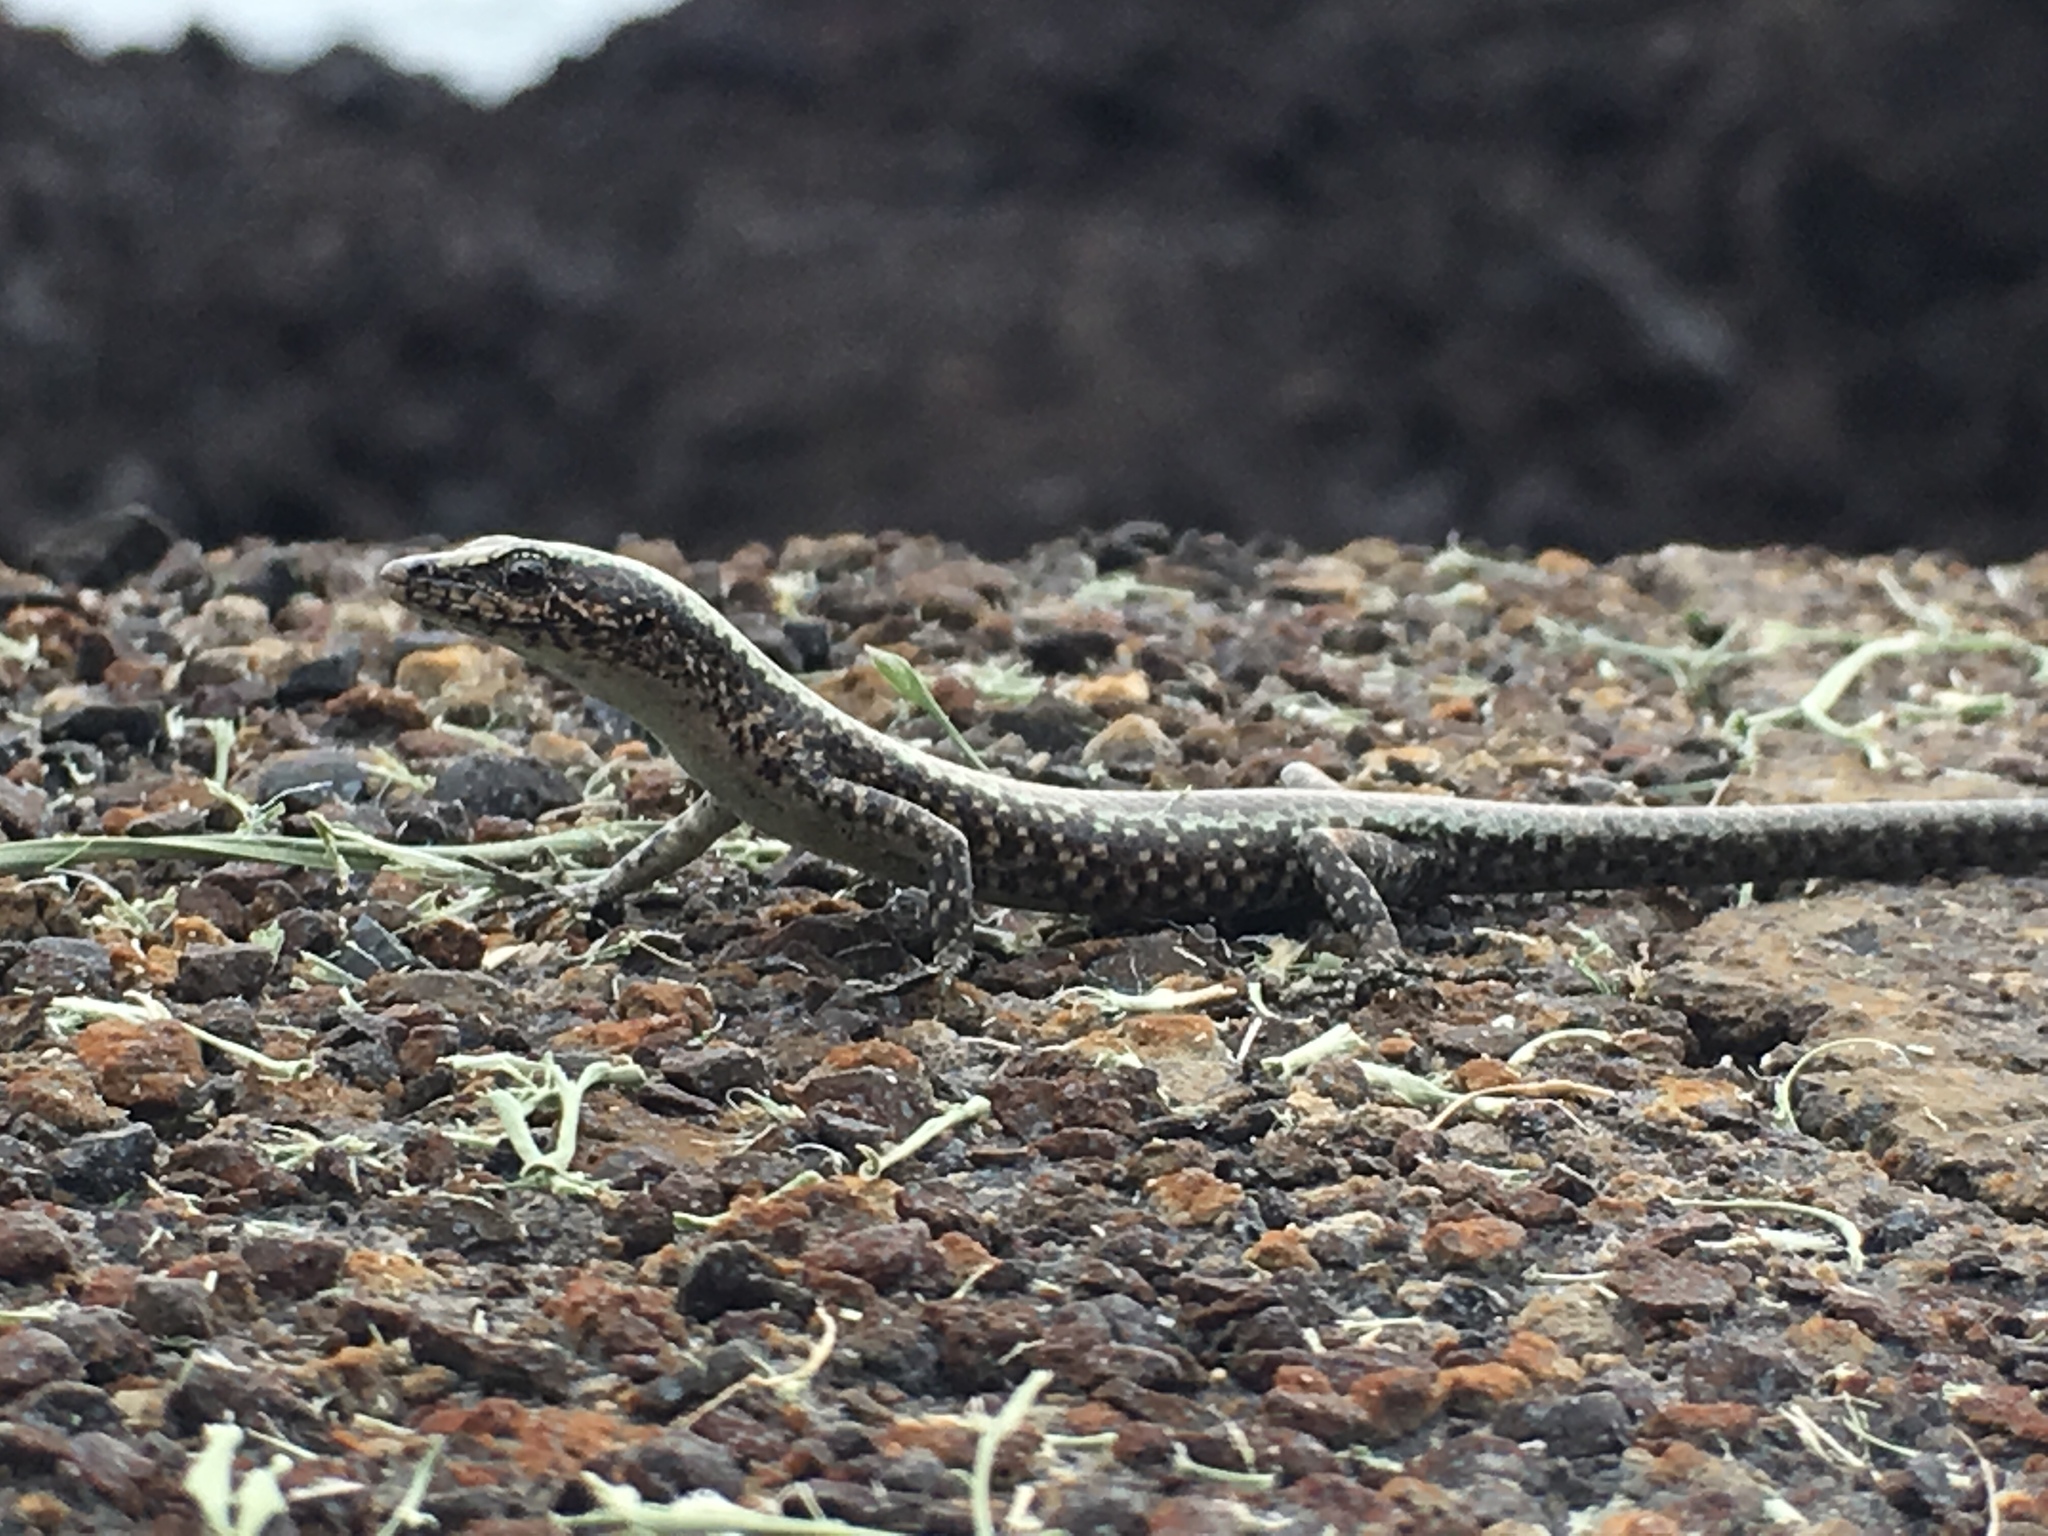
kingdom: Animalia
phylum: Chordata
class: Squamata
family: Scincidae
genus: Cryptoblepharus
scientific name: Cryptoblepharus poecilopleurus
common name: Mottled snake-eyed skink
